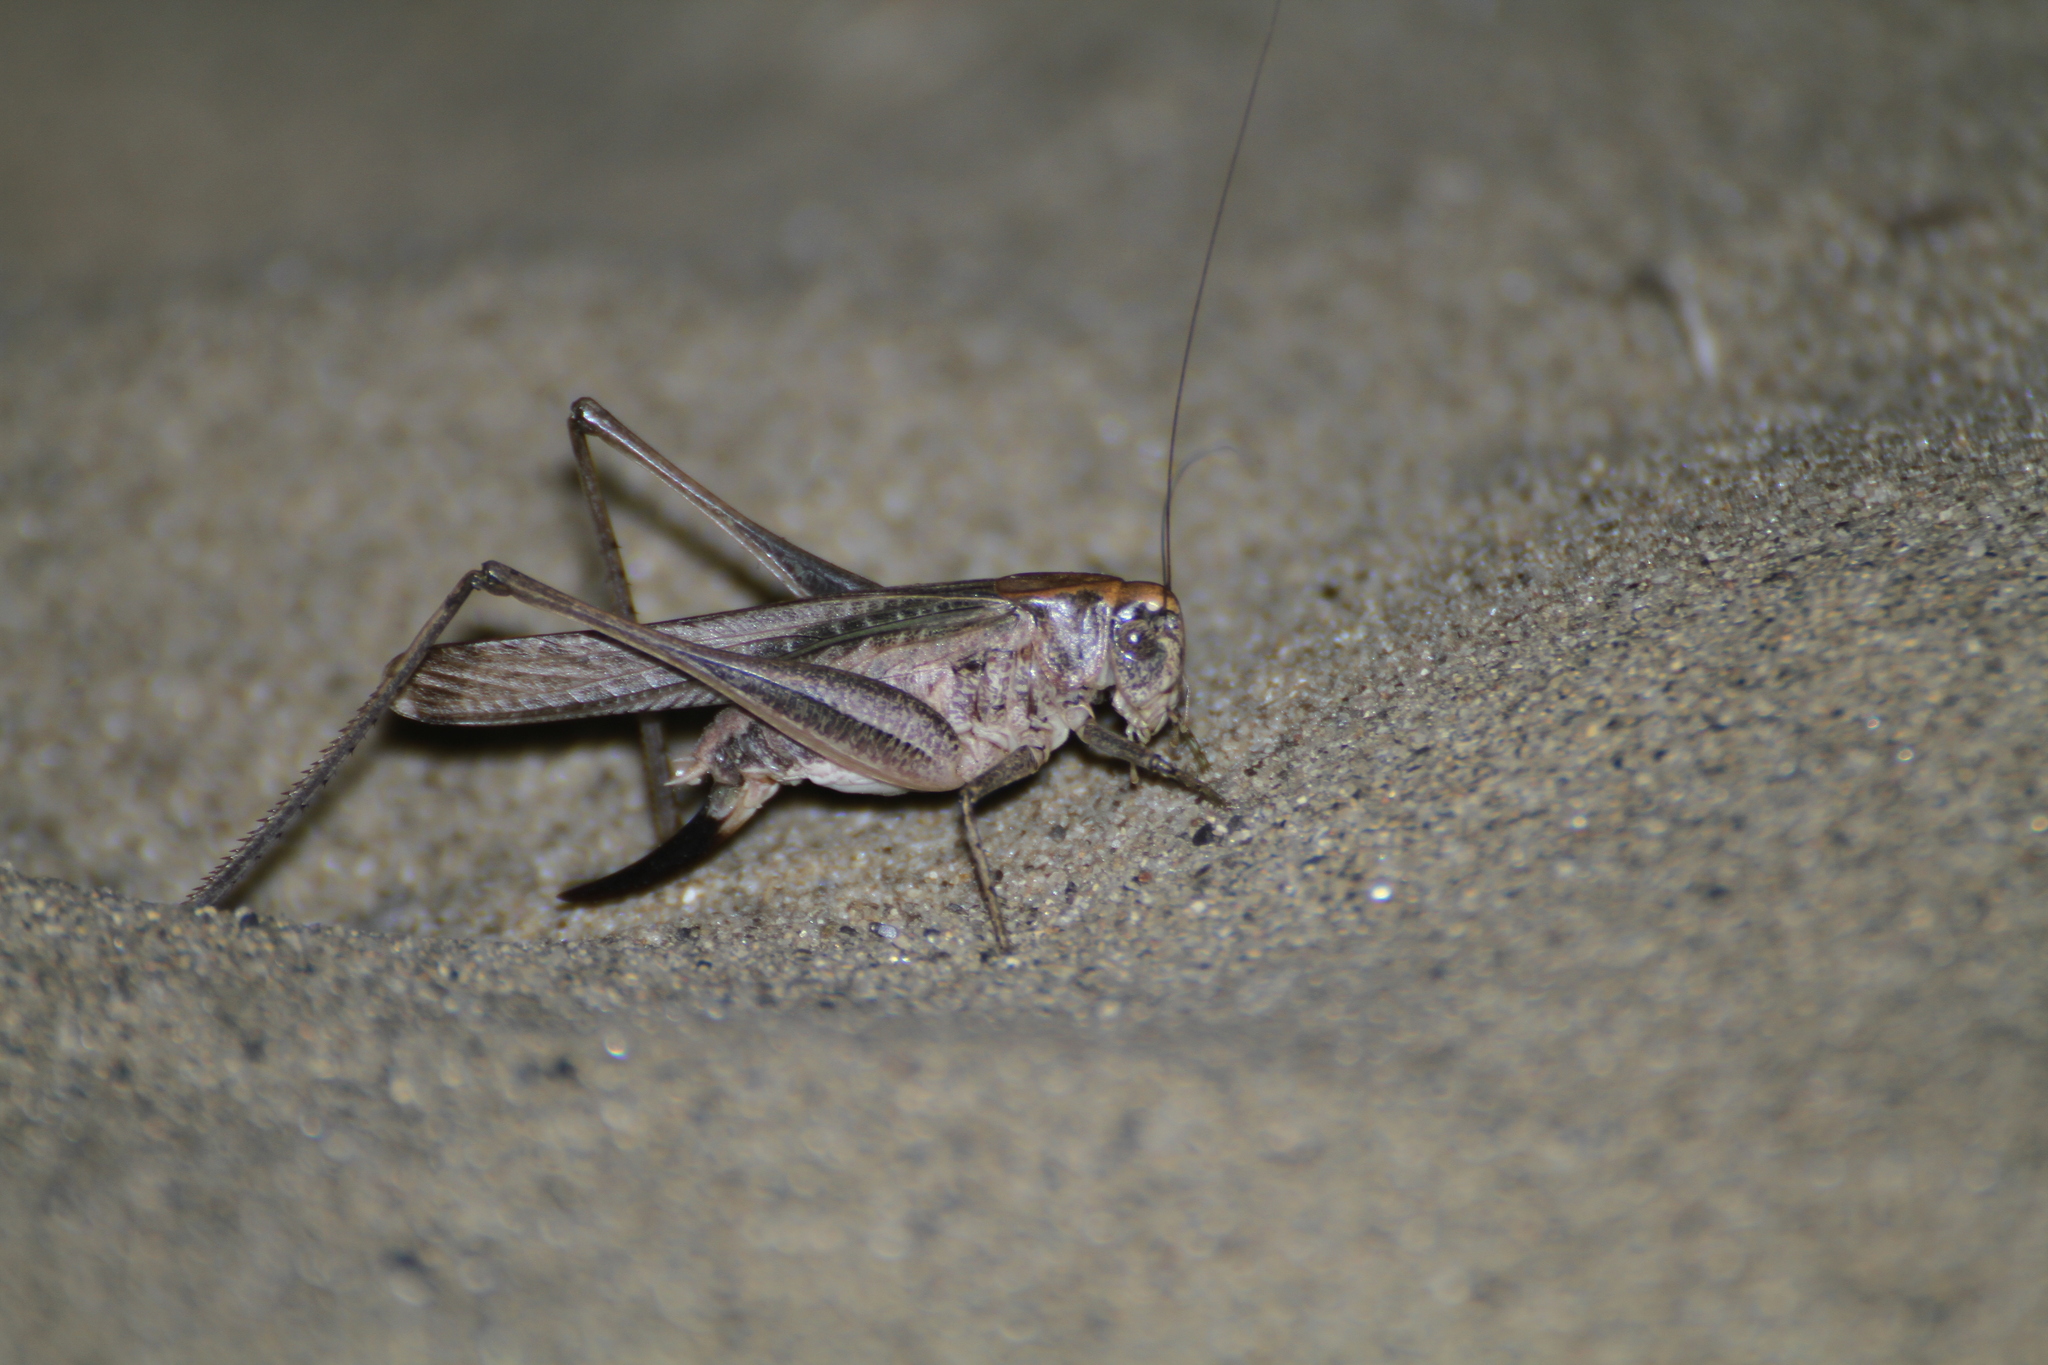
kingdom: Animalia
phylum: Arthropoda
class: Insecta
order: Orthoptera
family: Tettigoniidae
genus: Platycleis
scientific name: Platycleis sabulosa
